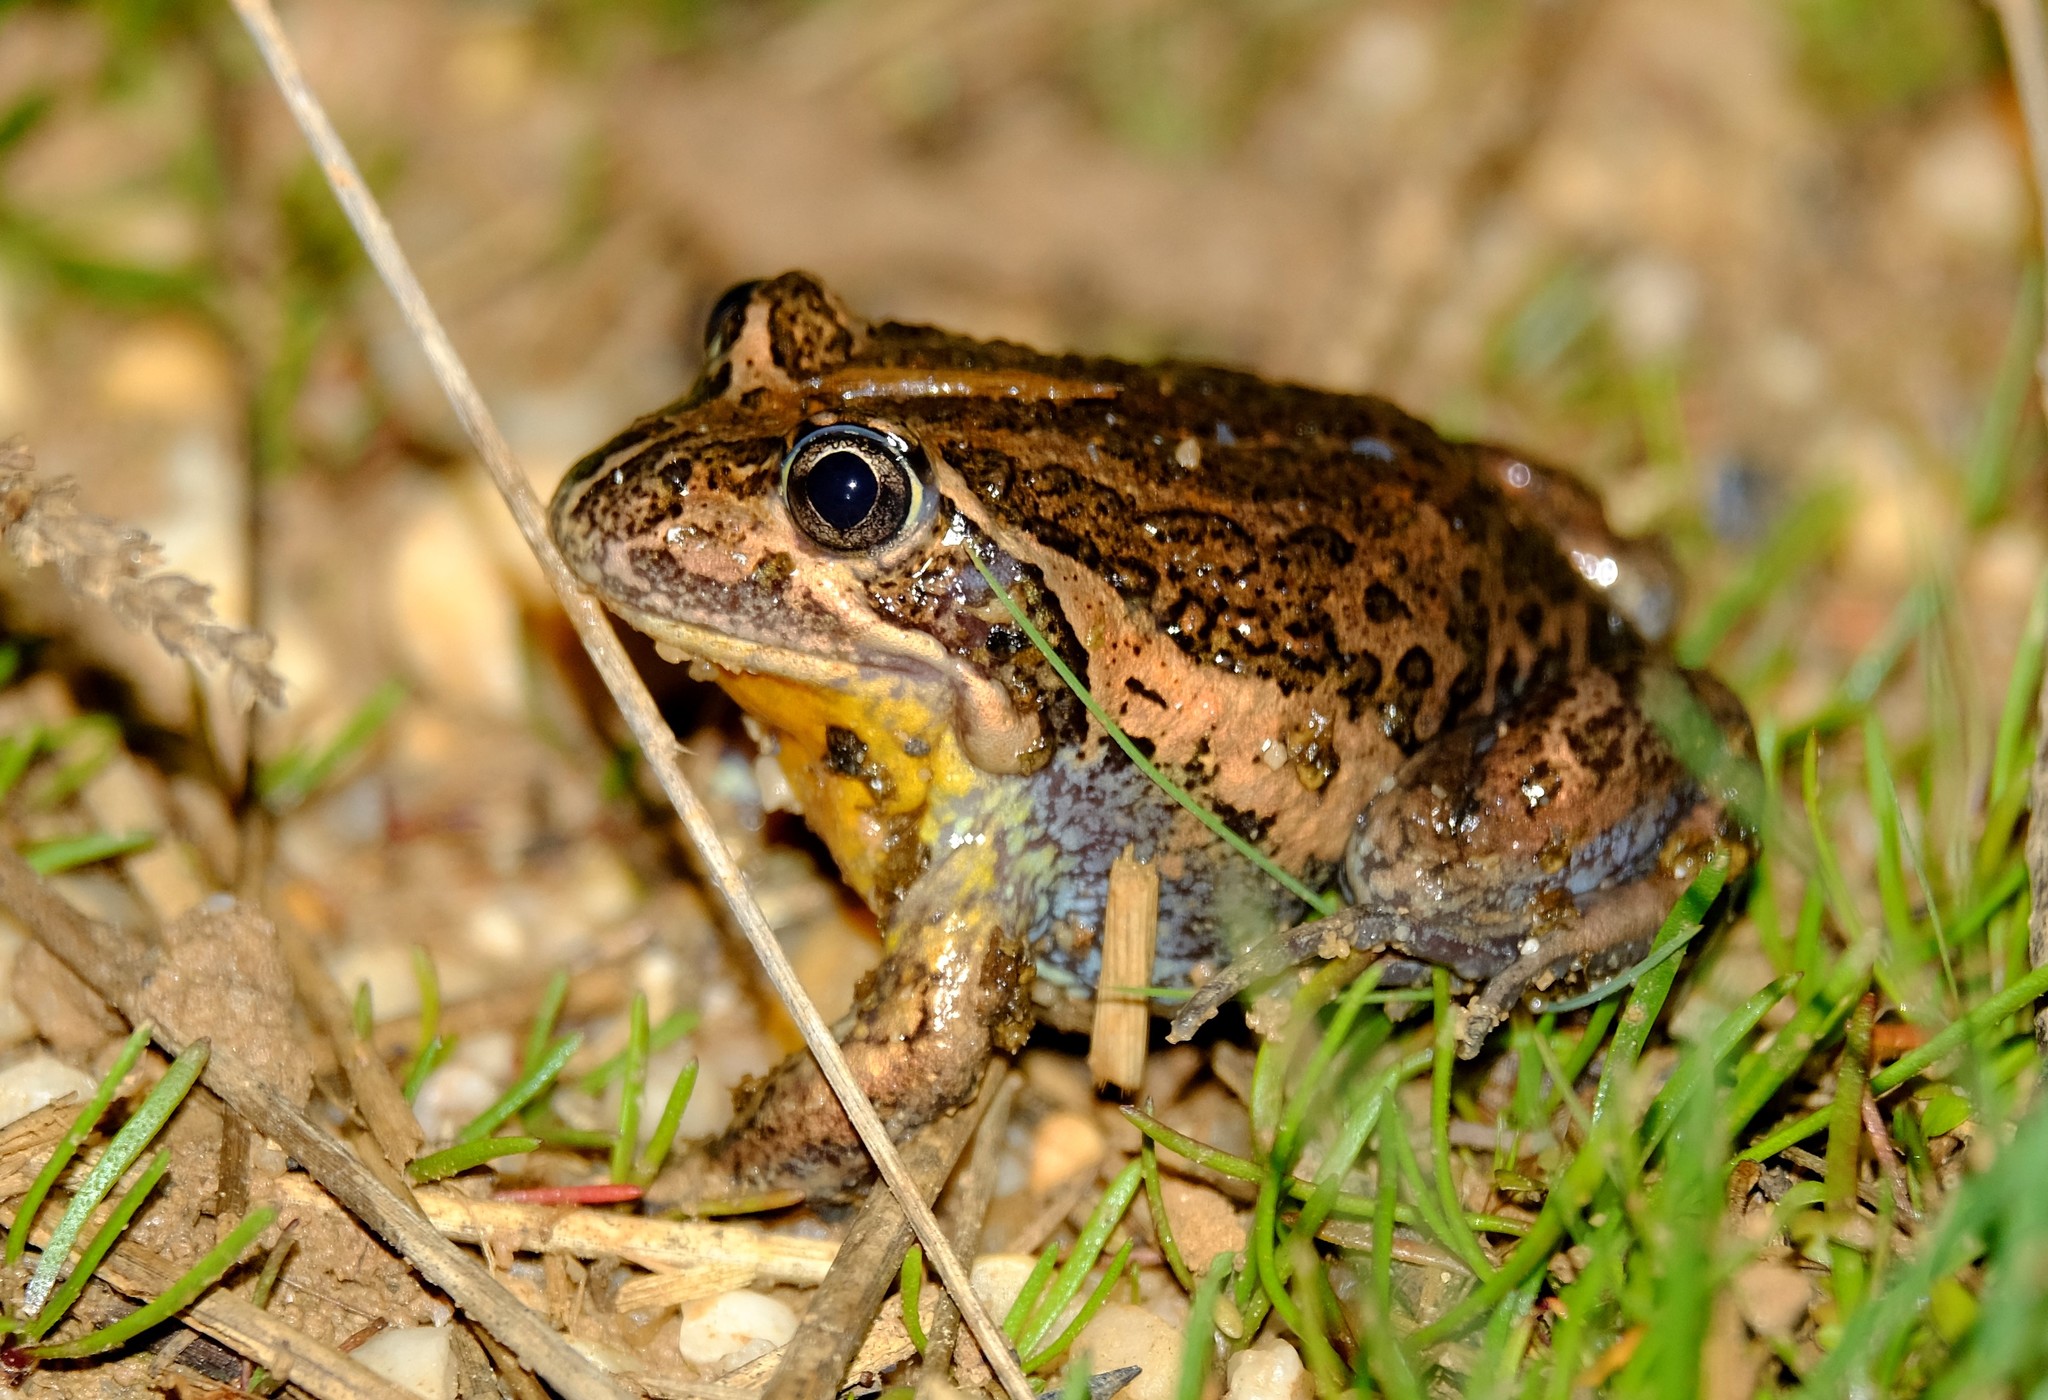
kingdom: Animalia
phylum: Chordata
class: Amphibia
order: Anura
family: Limnodynastidae
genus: Limnodynastes
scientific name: Limnodynastes dumerilii
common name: Banjo frog
